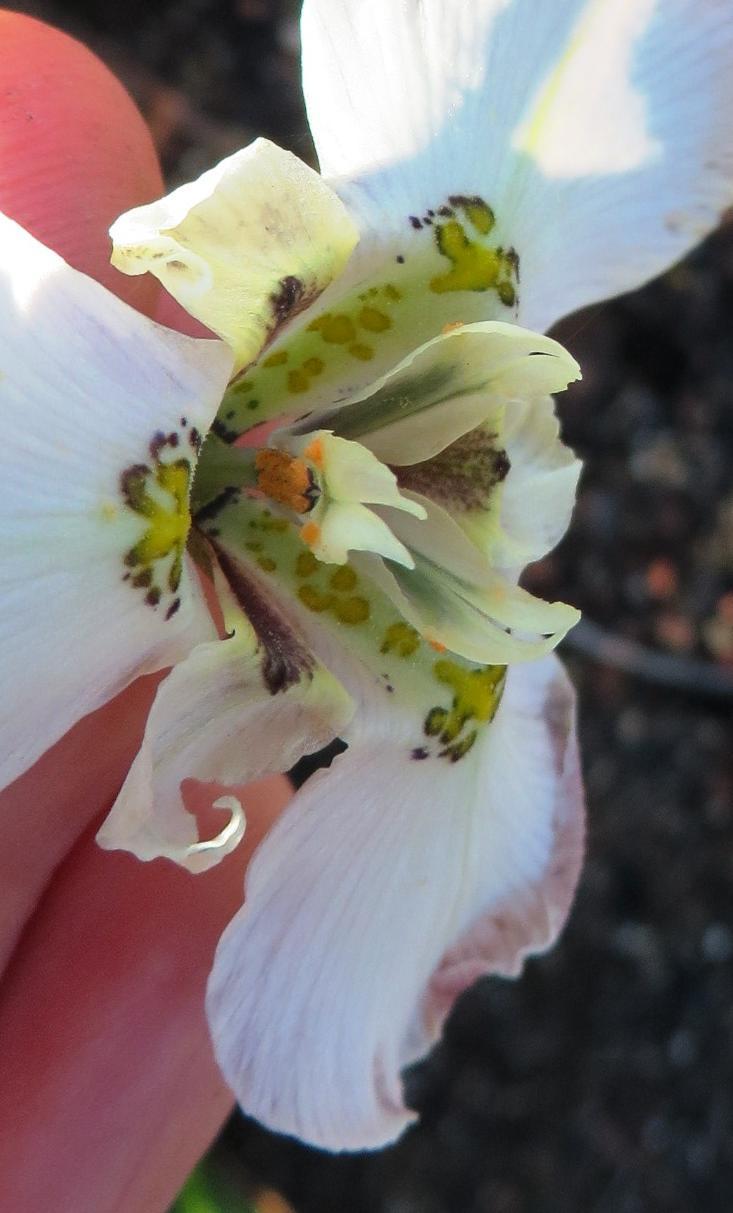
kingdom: Plantae
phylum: Tracheophyta
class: Liliopsida
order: Asparagales
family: Iridaceae
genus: Moraea
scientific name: Moraea cantharophila
